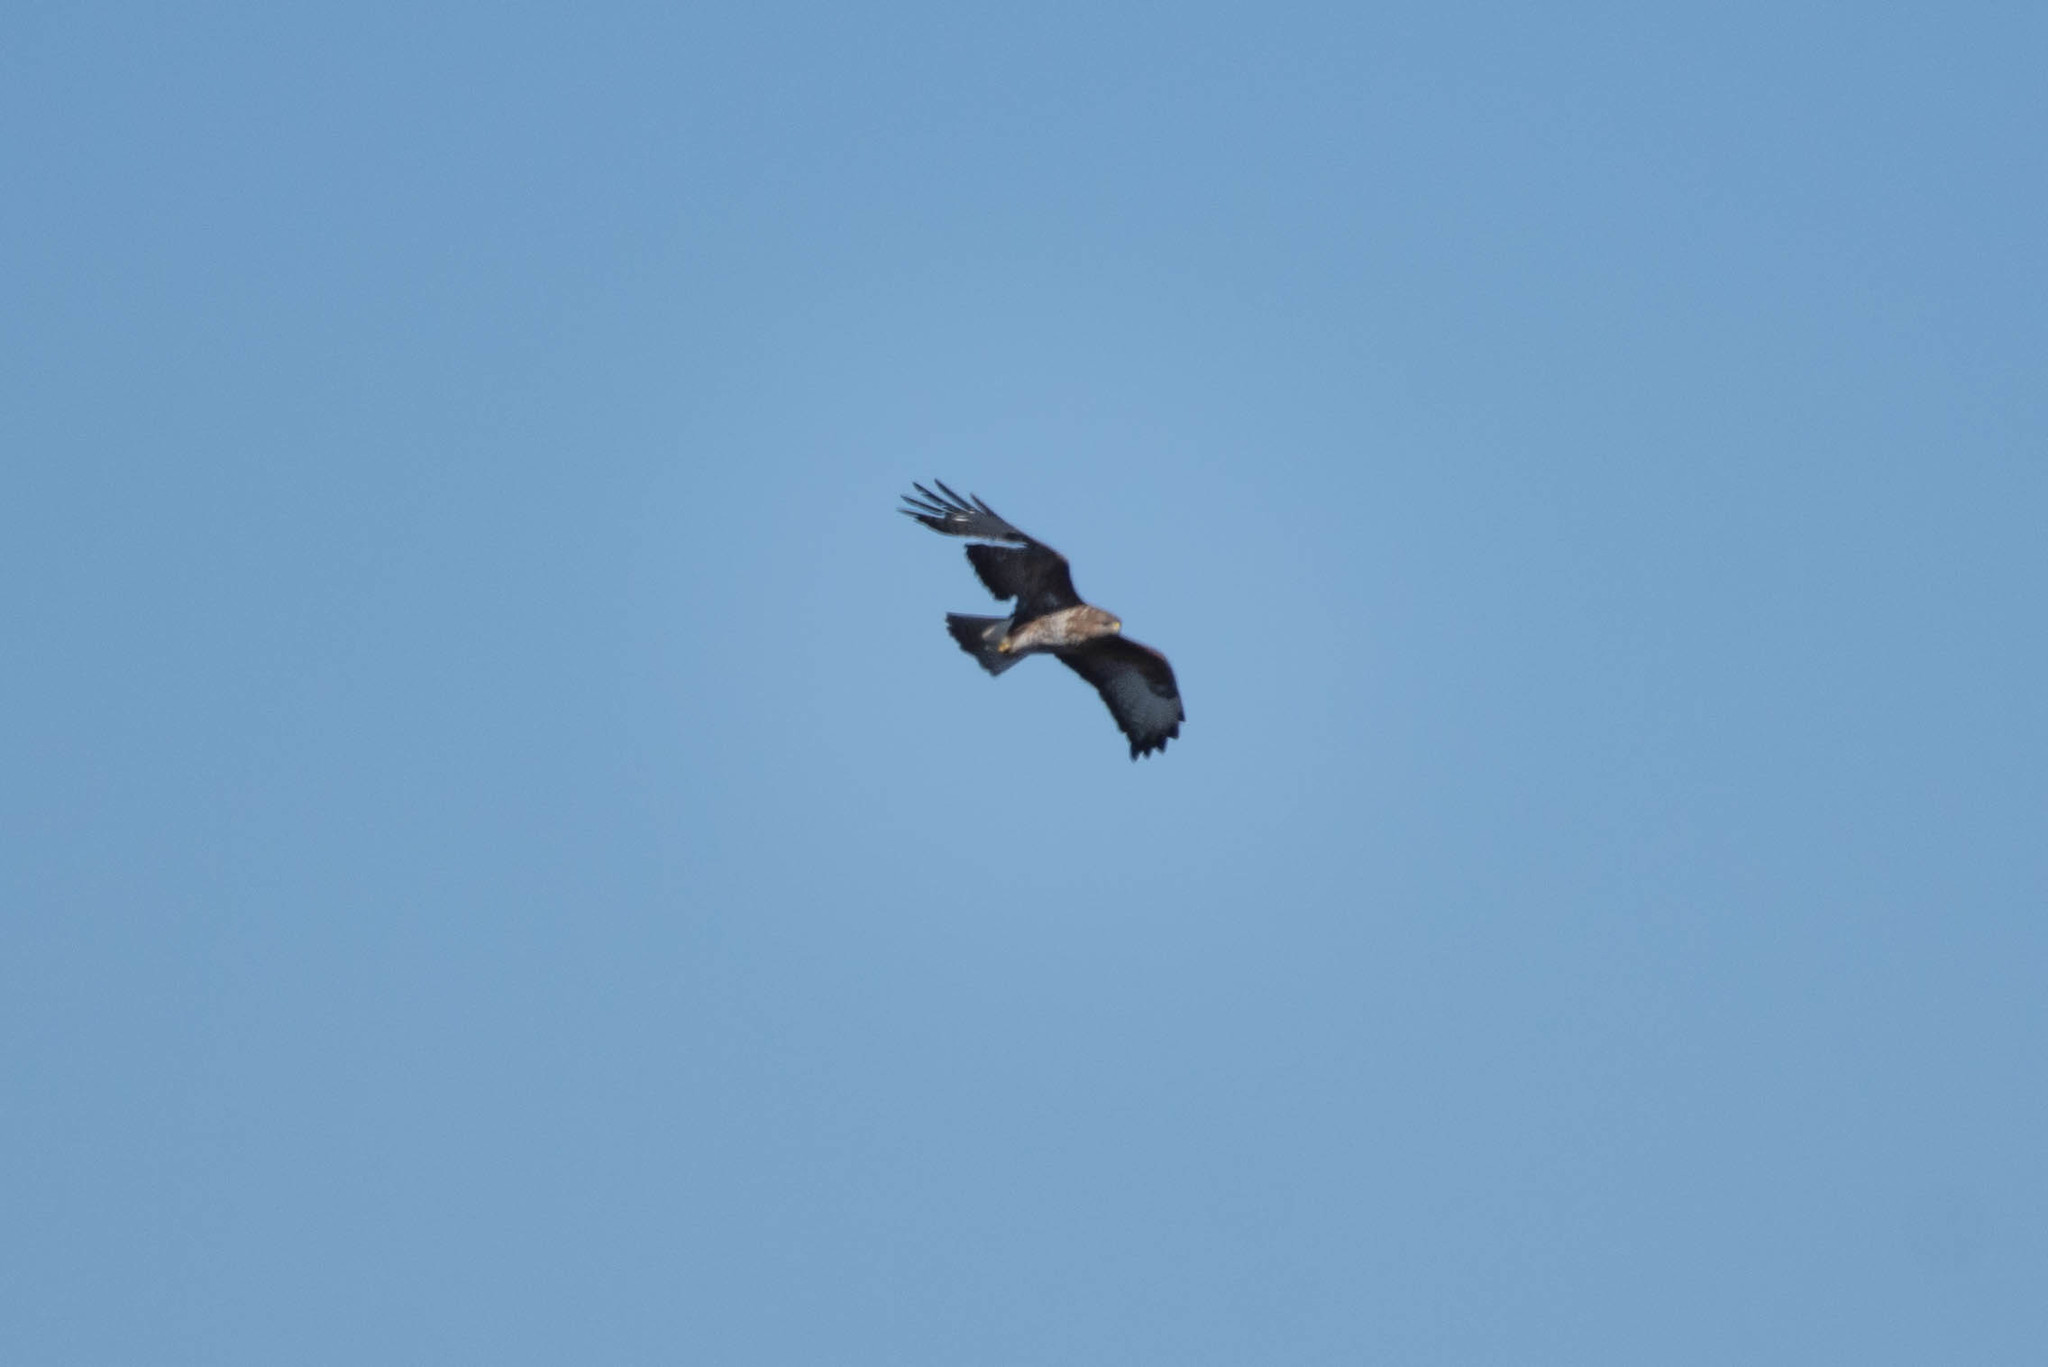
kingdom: Animalia
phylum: Chordata
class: Aves
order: Accipitriformes
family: Accipitridae
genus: Buteo
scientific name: Buteo buteo
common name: Common buzzard
